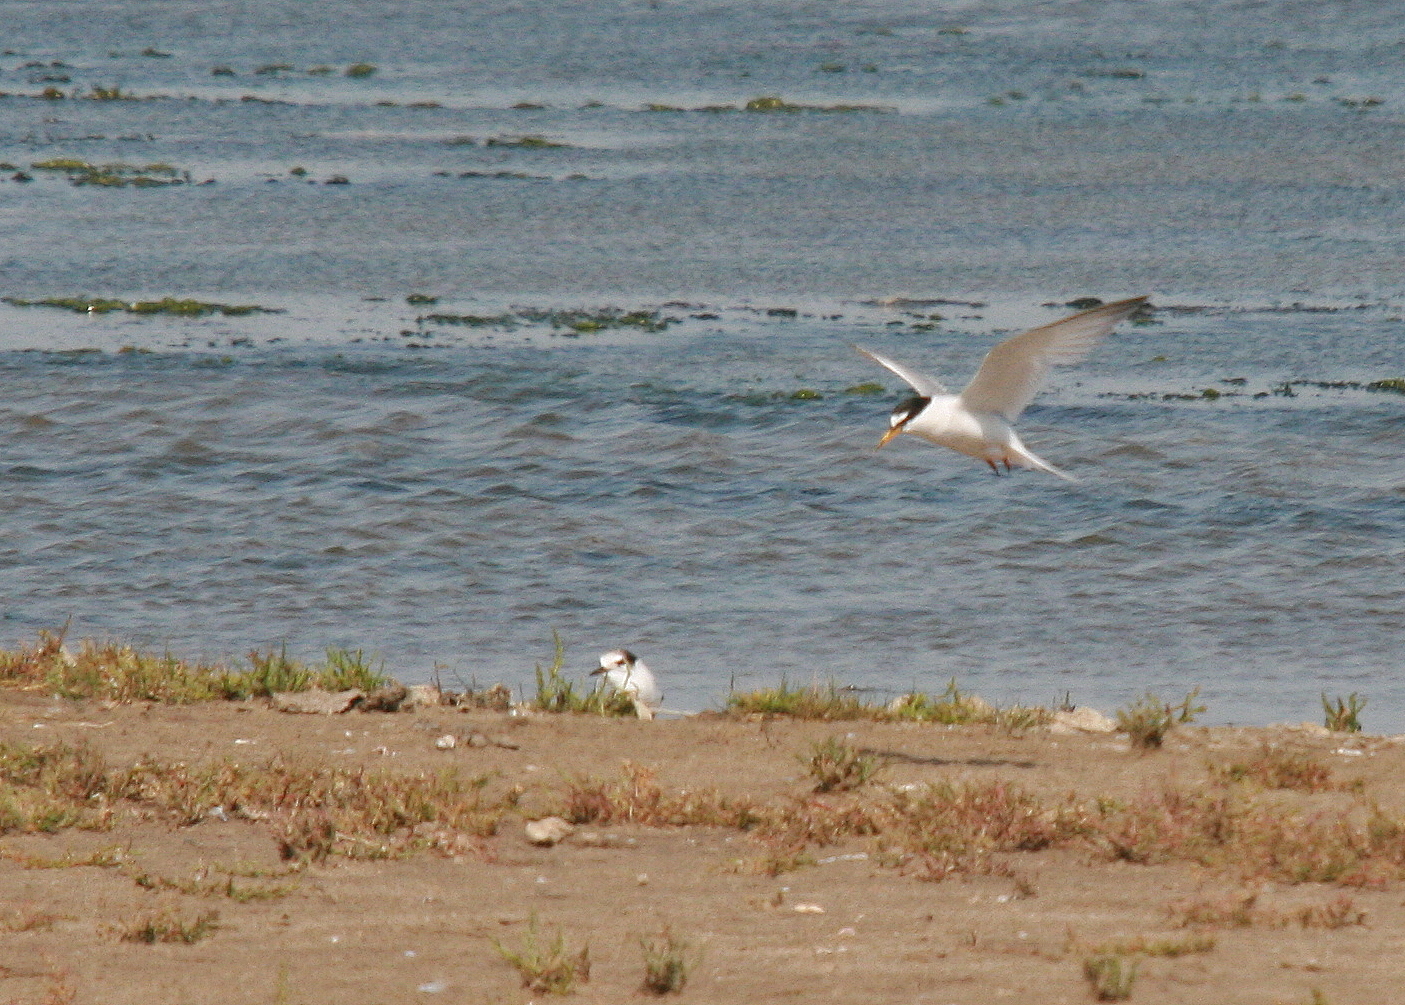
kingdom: Animalia
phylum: Chordata
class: Aves
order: Charadriiformes
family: Laridae
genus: Sternula
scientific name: Sternula albifrons
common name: Little tern
